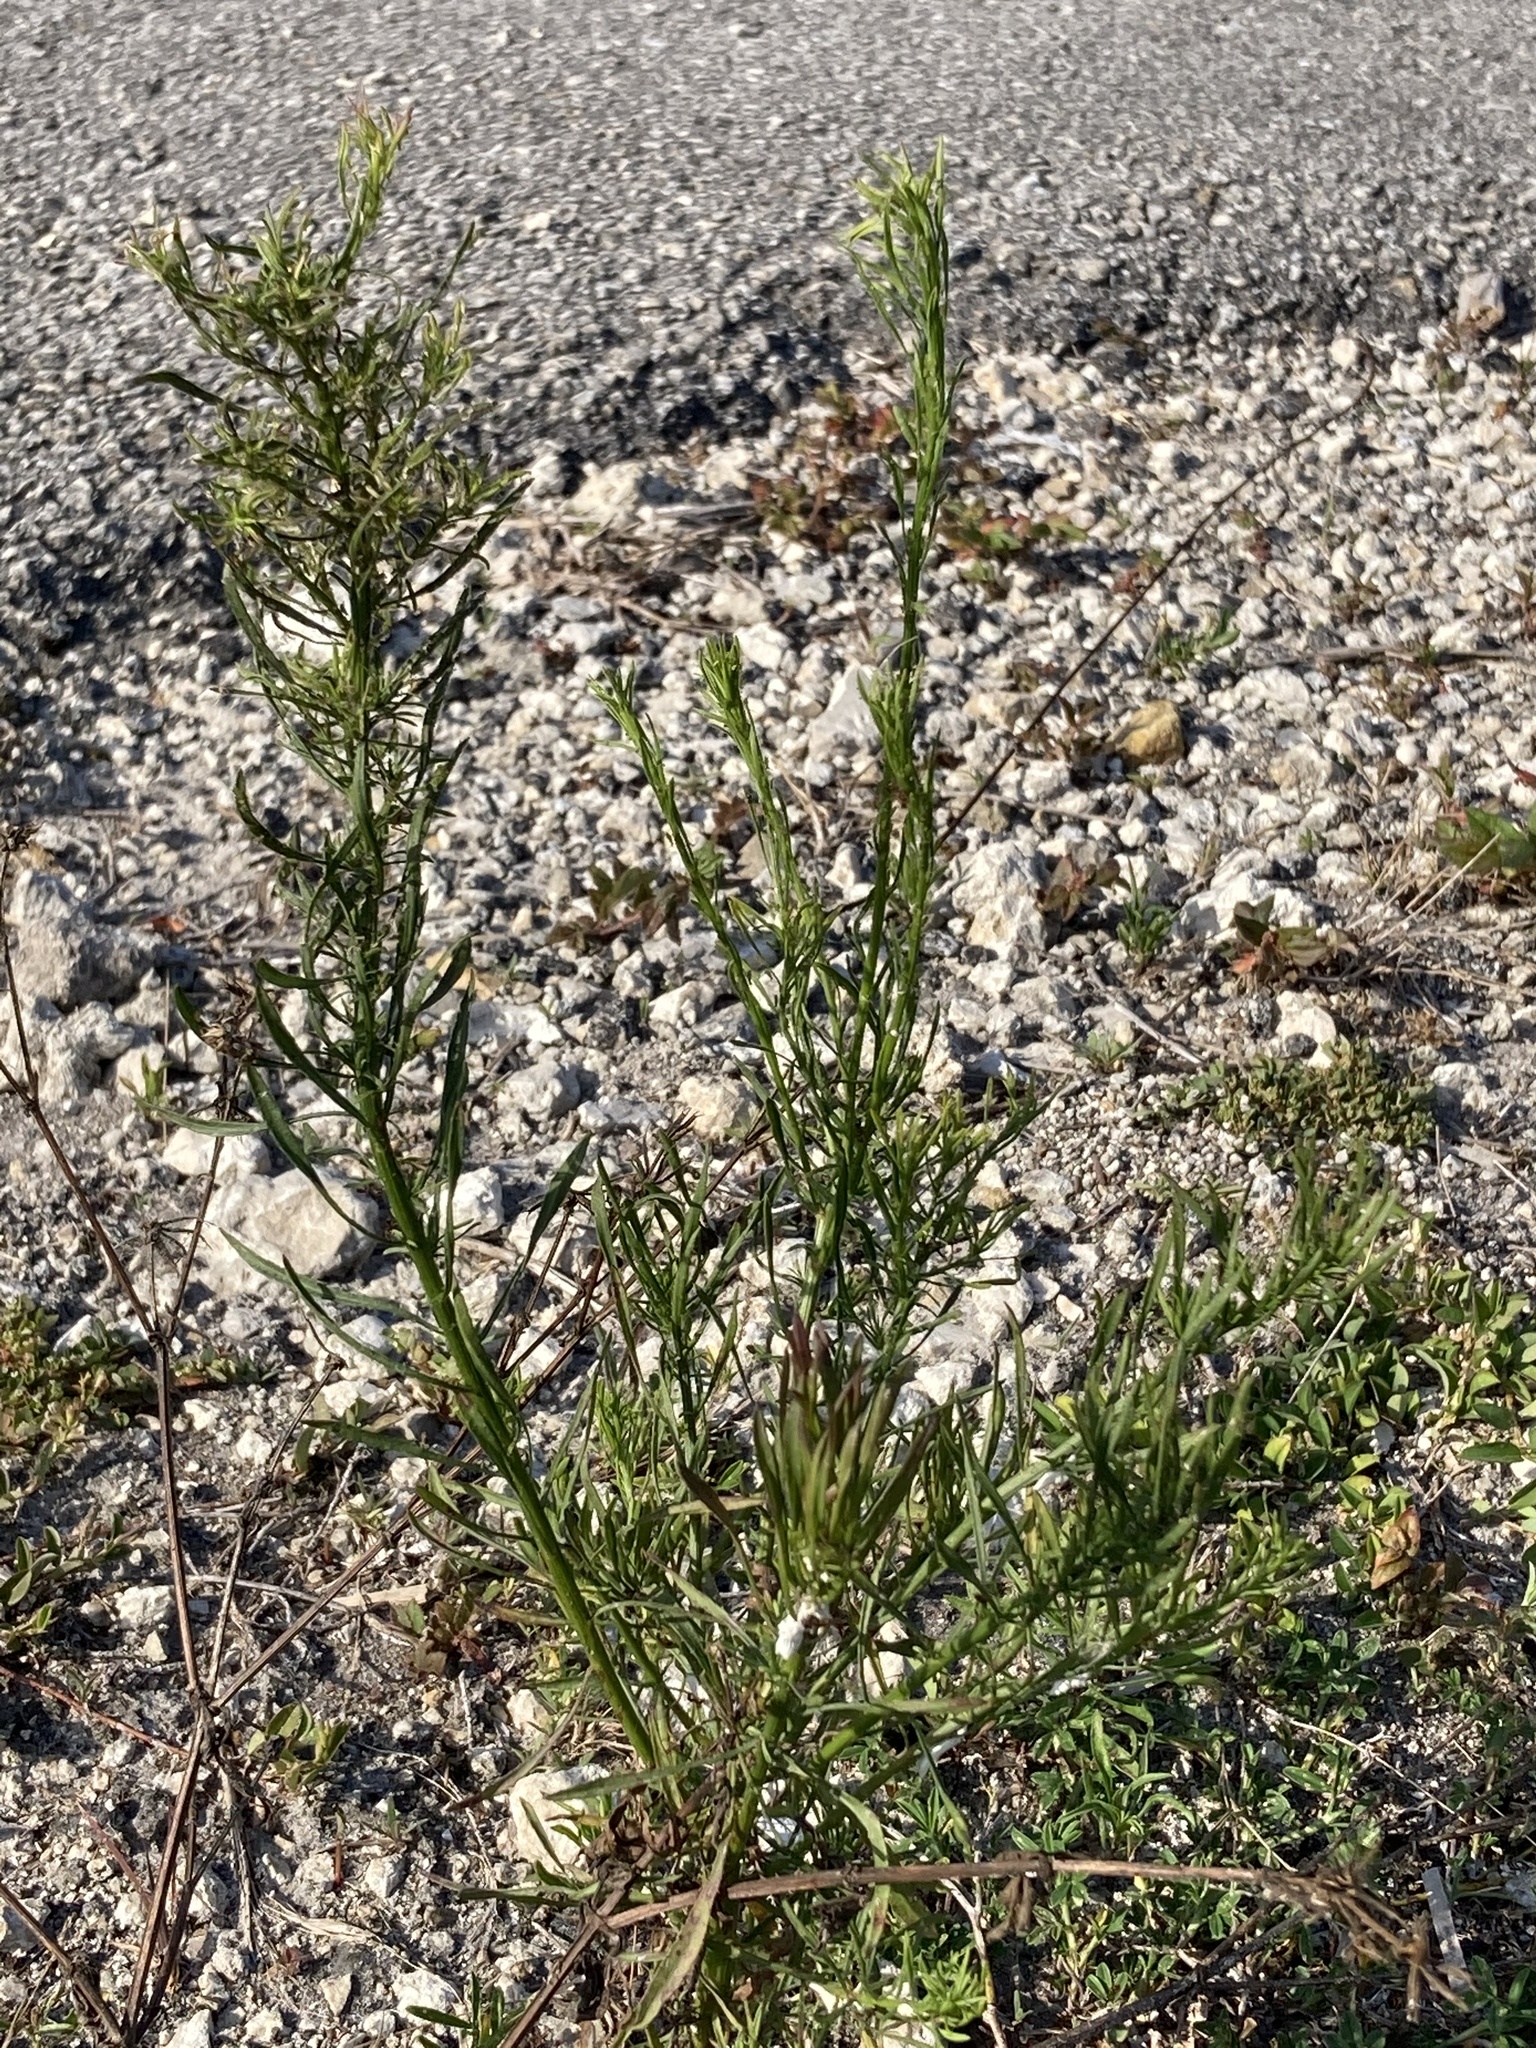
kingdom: Plantae
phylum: Tracheophyta
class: Magnoliopsida
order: Asterales
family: Asteraceae
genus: Erigeron
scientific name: Erigeron canadensis
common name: Canadian fleabane
